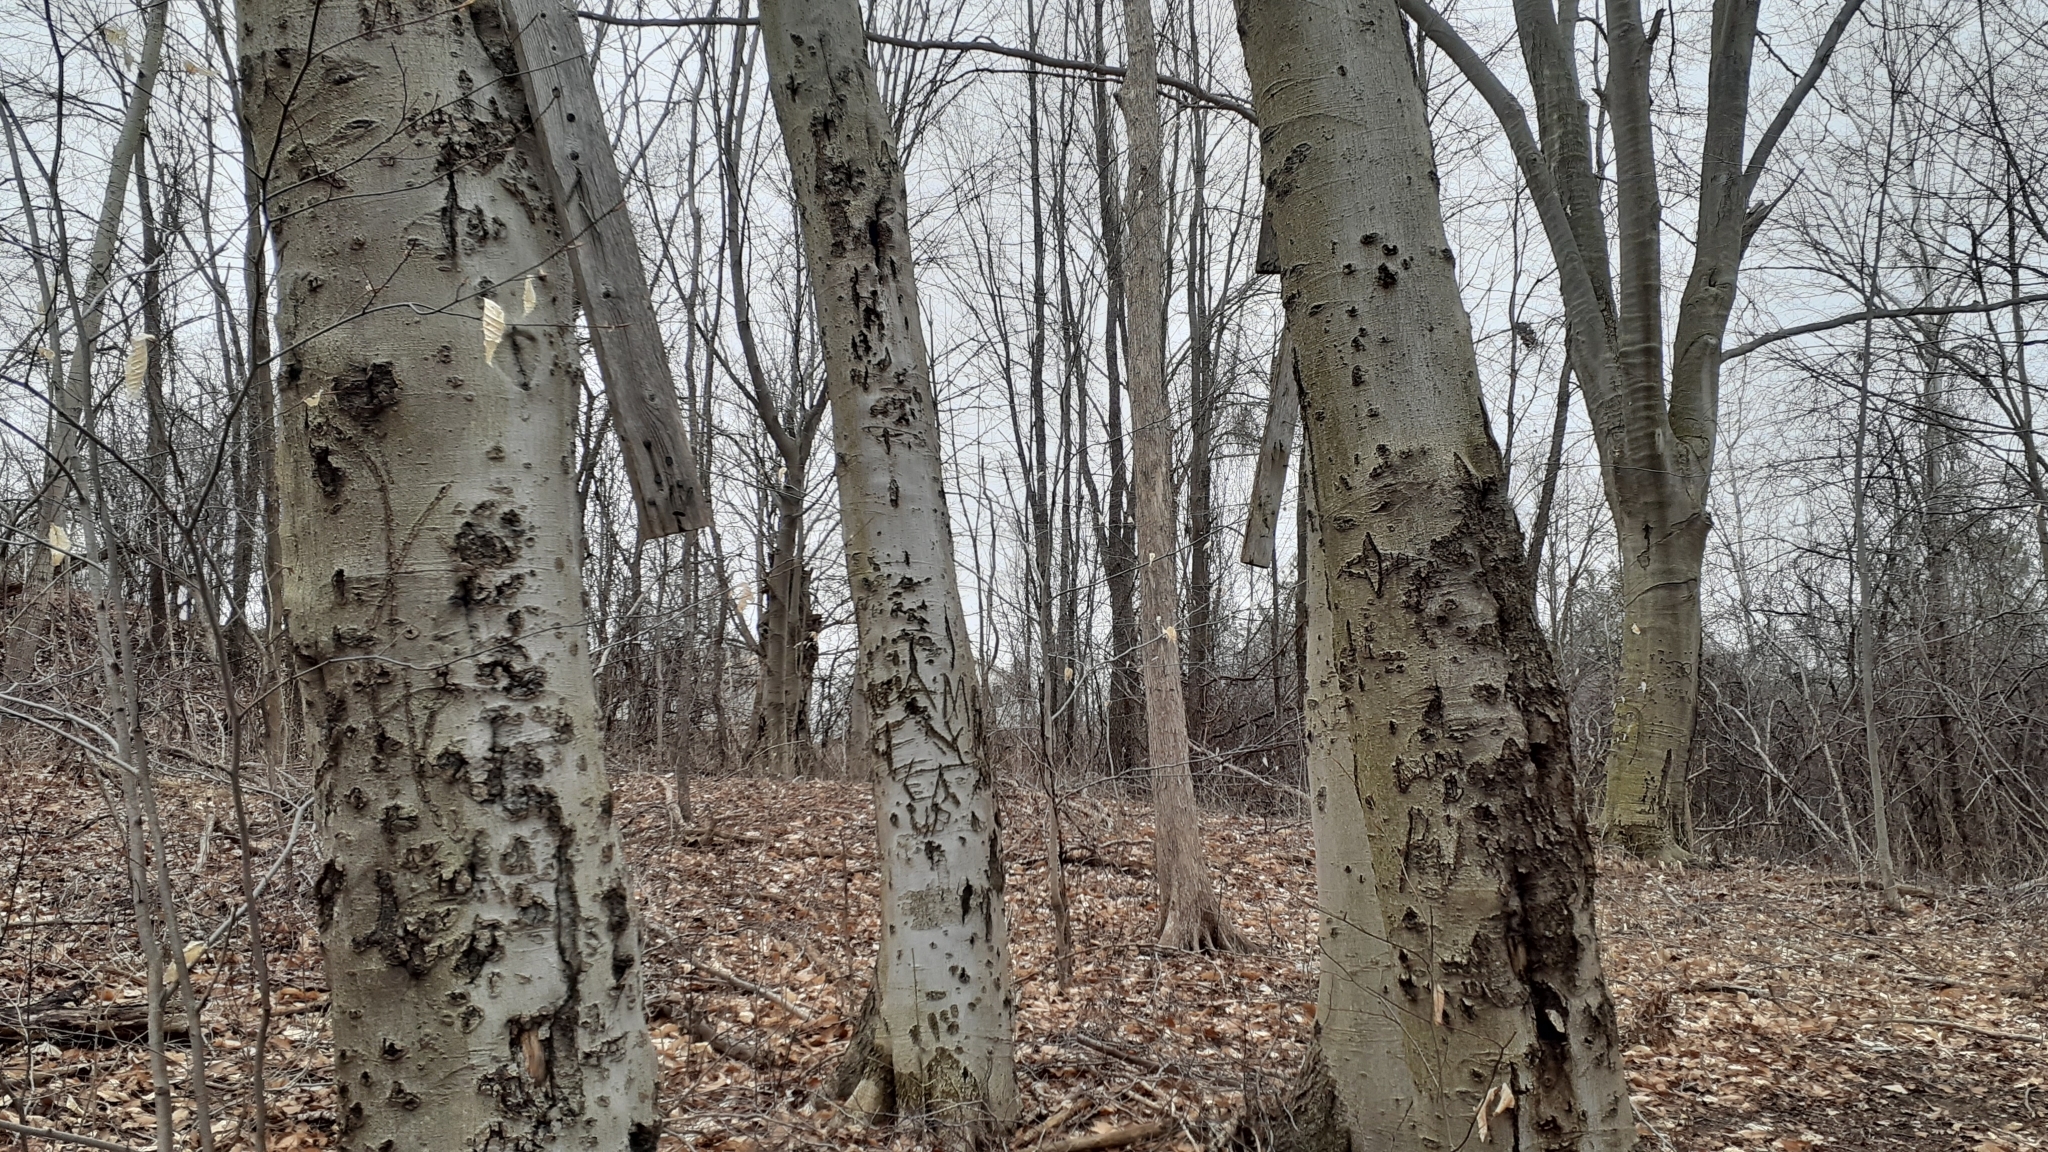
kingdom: Plantae
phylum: Tracheophyta
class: Magnoliopsida
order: Fagales
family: Fagaceae
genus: Fagus
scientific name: Fagus grandifolia
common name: American beech
